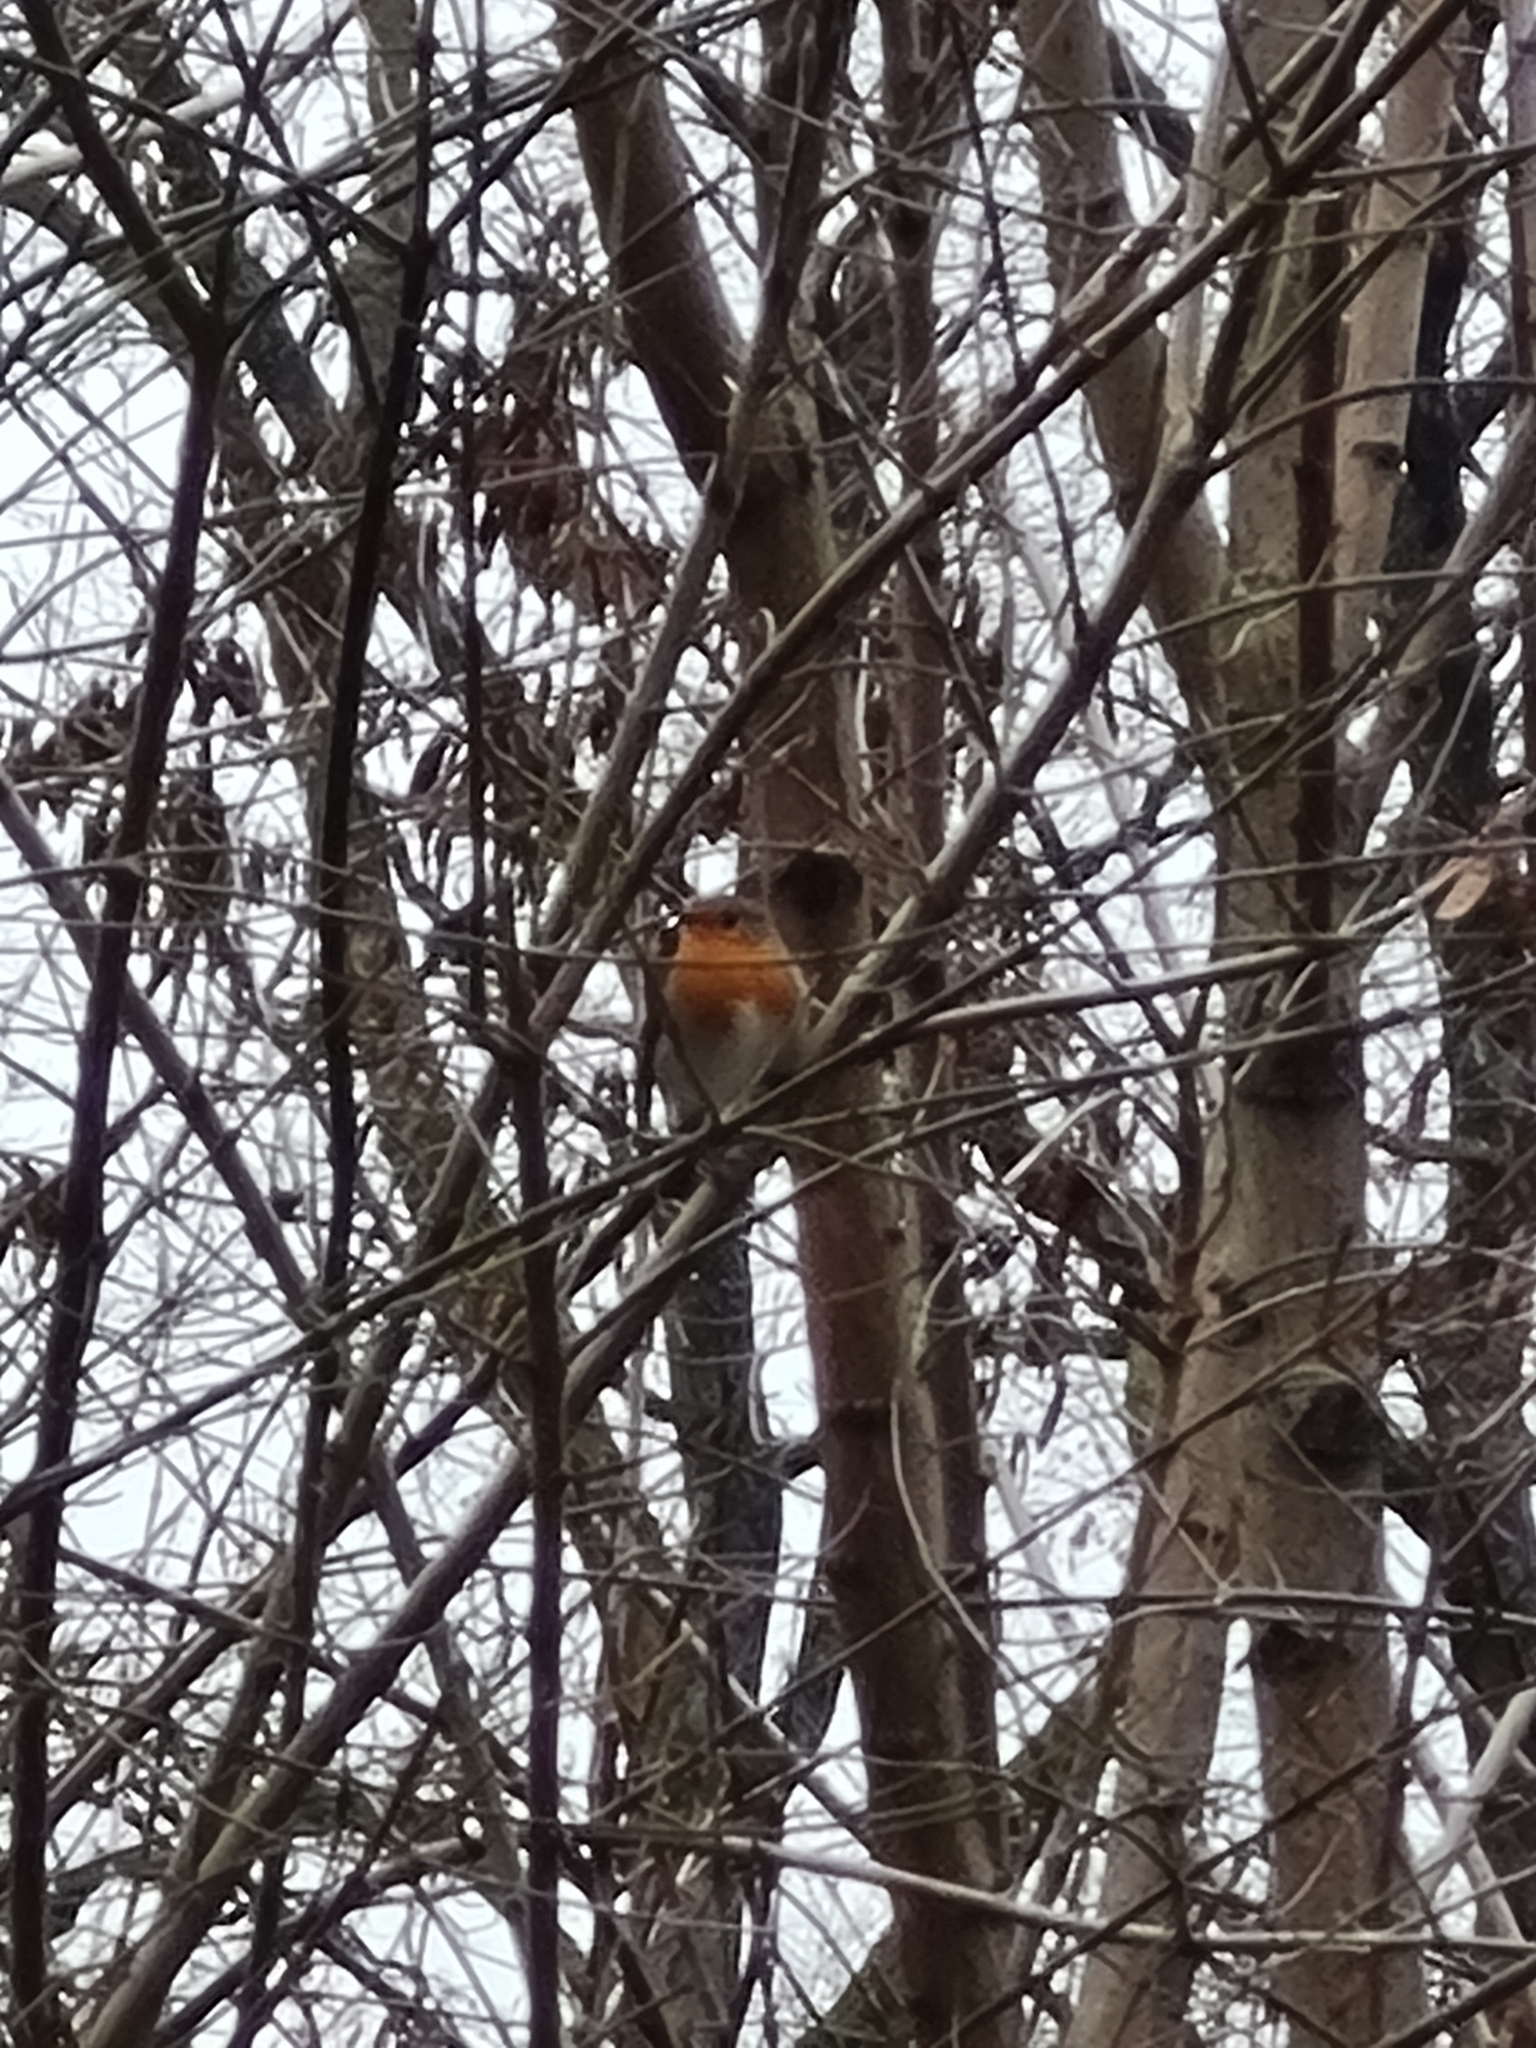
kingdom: Animalia
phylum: Chordata
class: Aves
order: Passeriformes
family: Muscicapidae
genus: Erithacus
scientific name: Erithacus rubecula
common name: European robin
